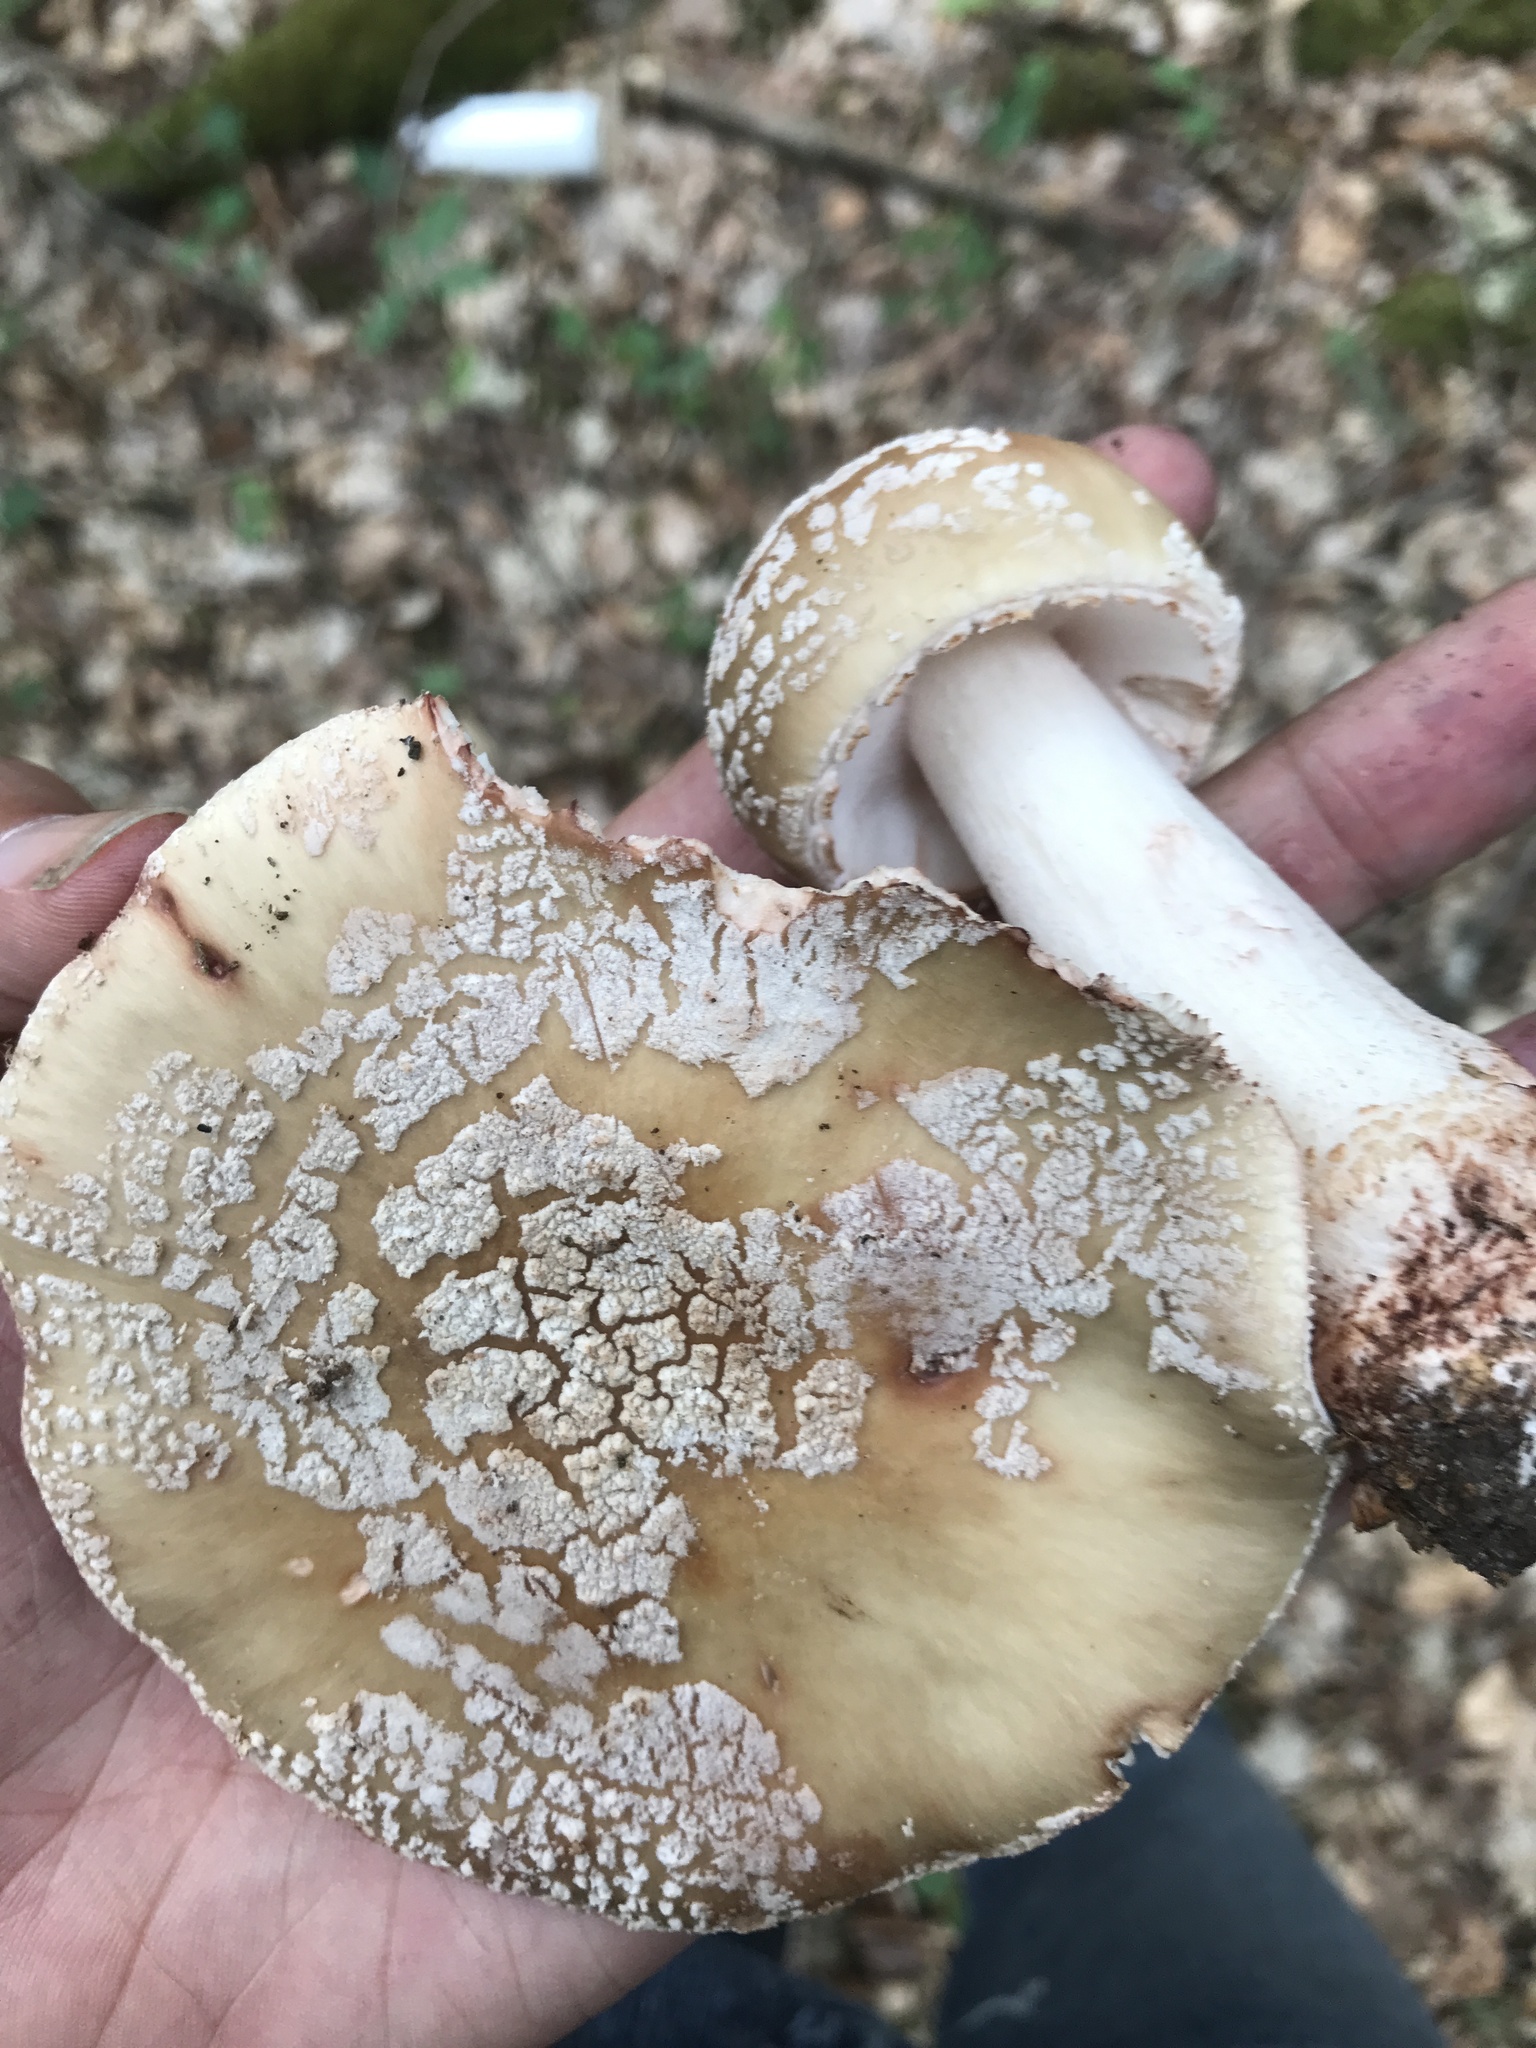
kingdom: Fungi
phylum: Basidiomycota
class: Agaricomycetes
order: Agaricales
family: Amanitaceae
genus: Amanita
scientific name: Amanita rubescens
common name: Blusher
